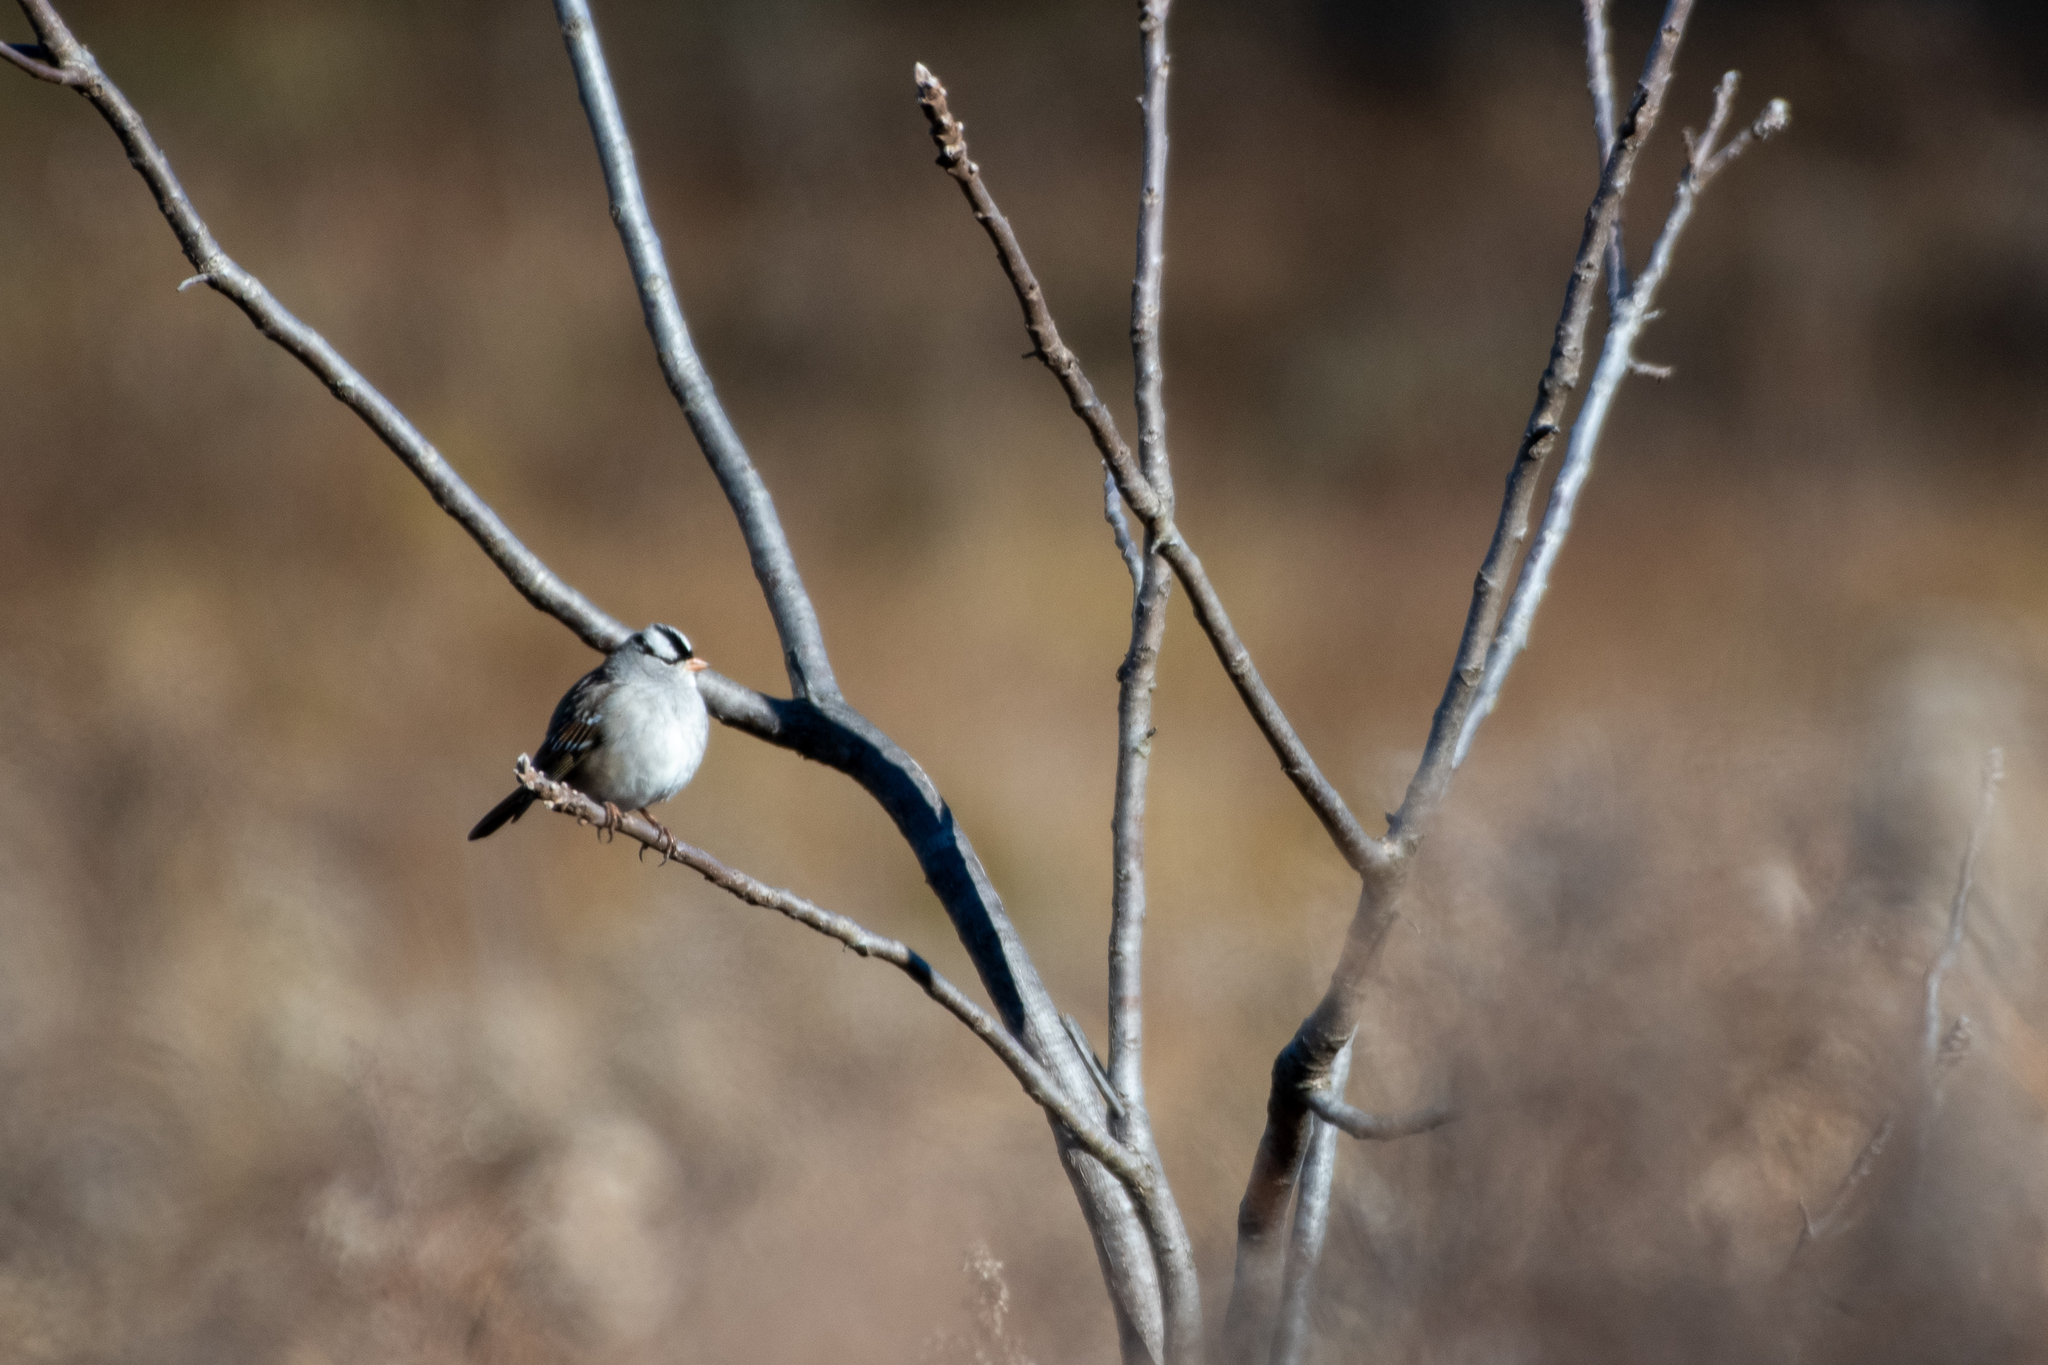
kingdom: Animalia
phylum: Chordata
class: Aves
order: Passeriformes
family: Passerellidae
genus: Zonotrichia
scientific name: Zonotrichia leucophrys
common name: White-crowned sparrow
